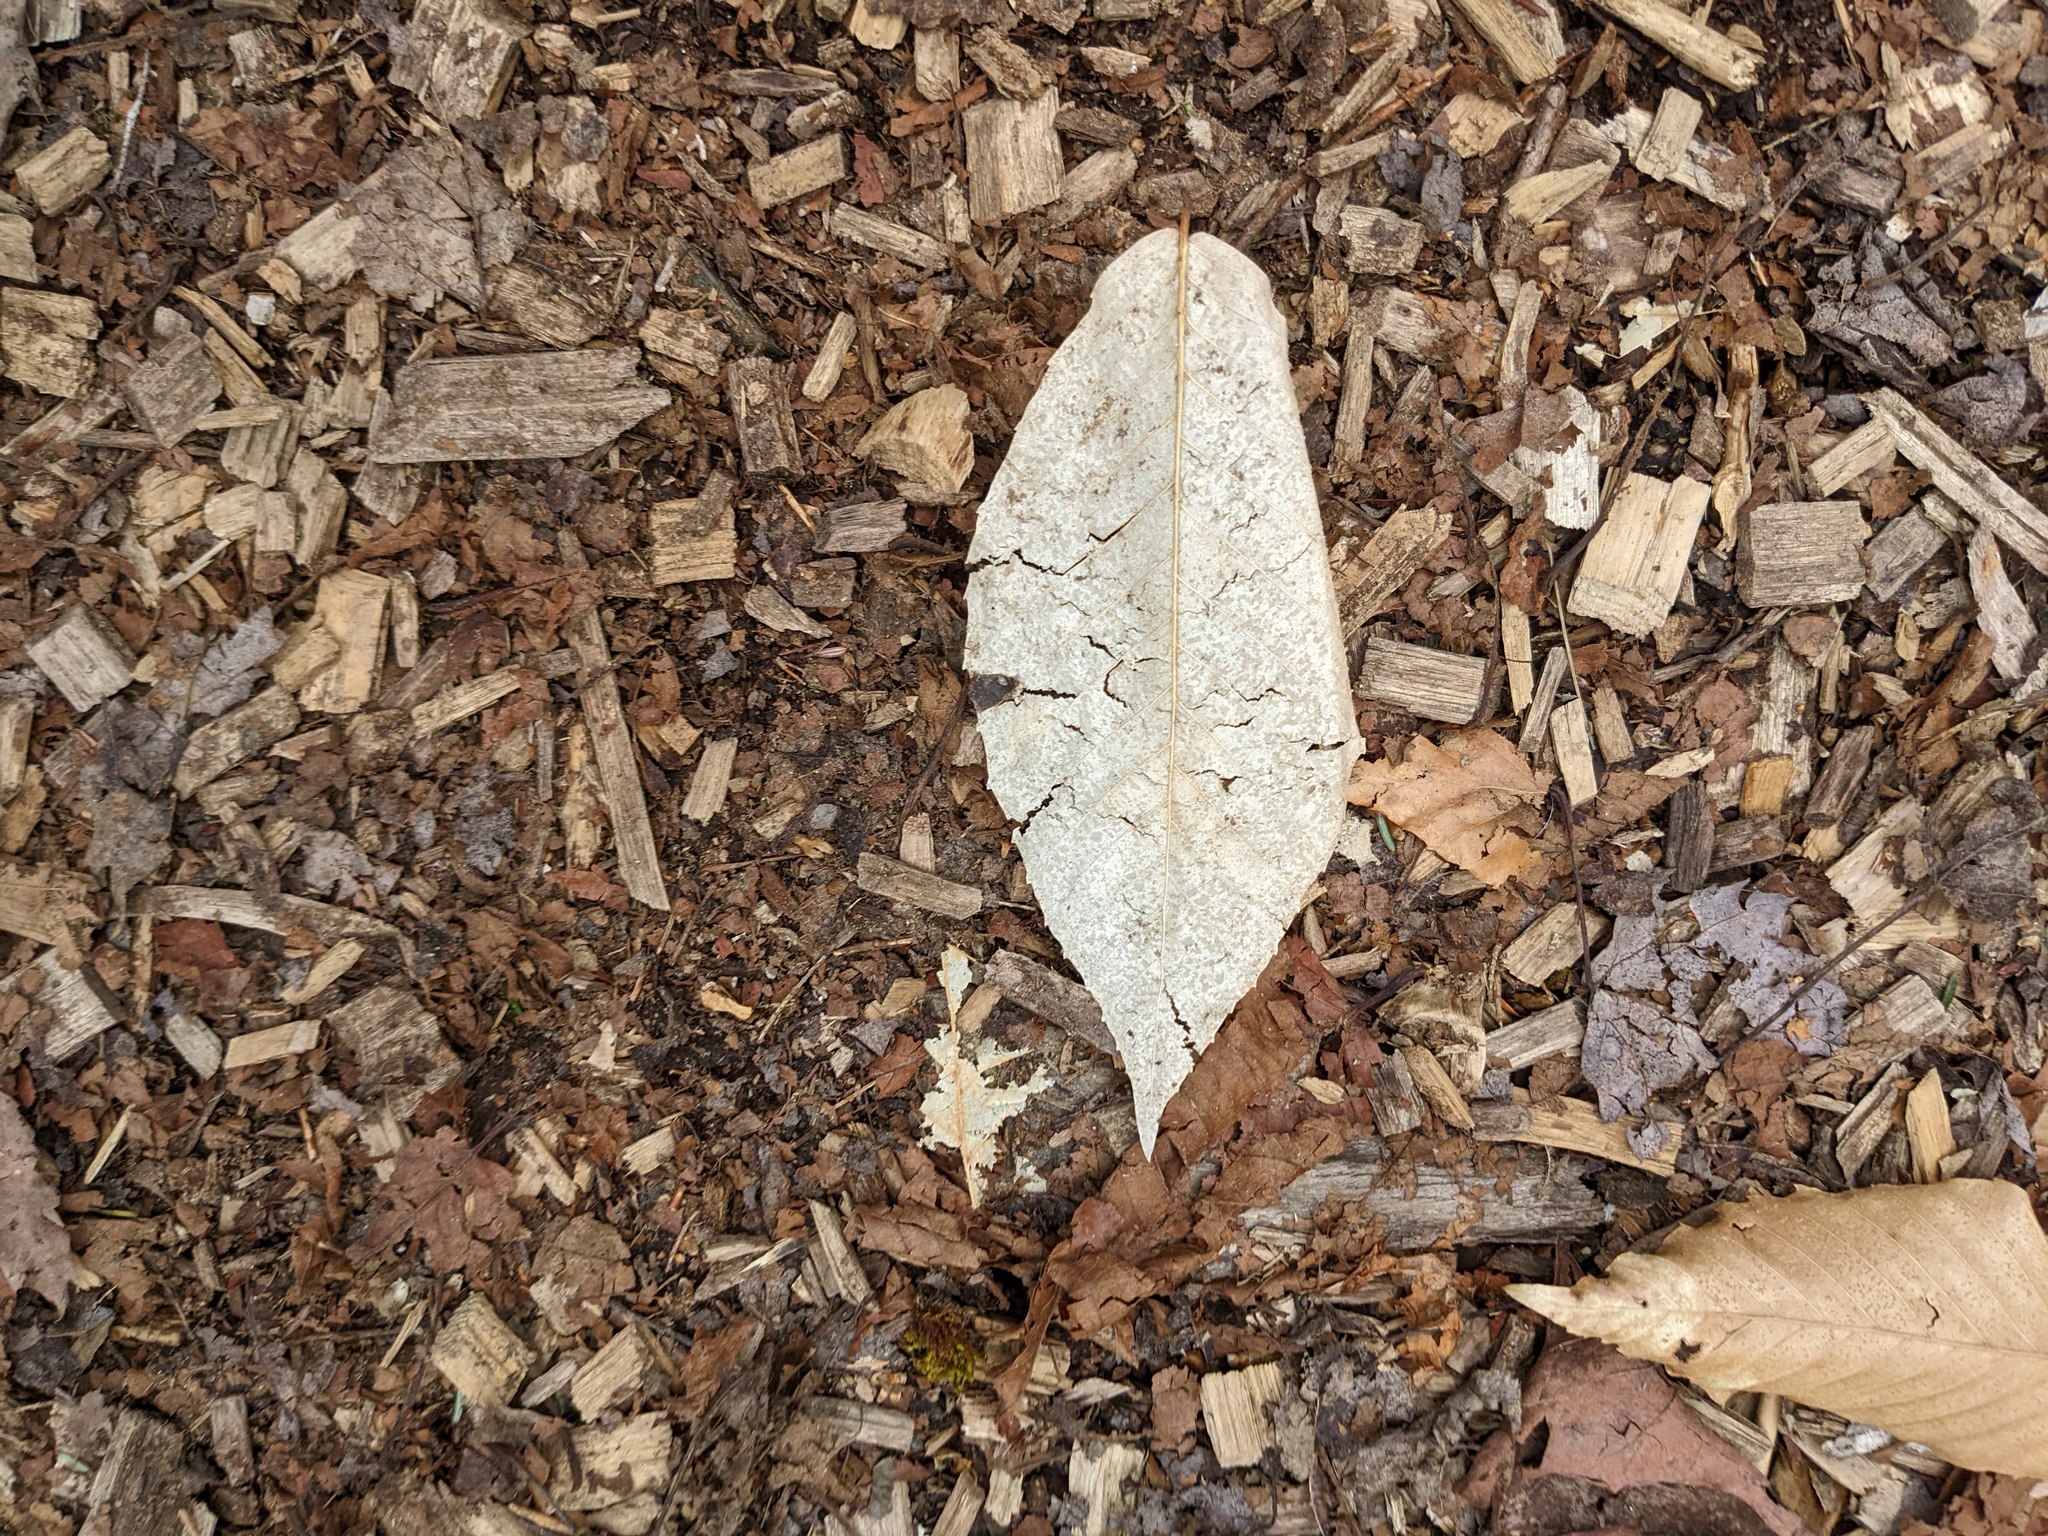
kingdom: Plantae
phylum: Tracheophyta
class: Magnoliopsida
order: Fagales
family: Fagaceae
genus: Fagus
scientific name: Fagus grandifolia
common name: American beech
